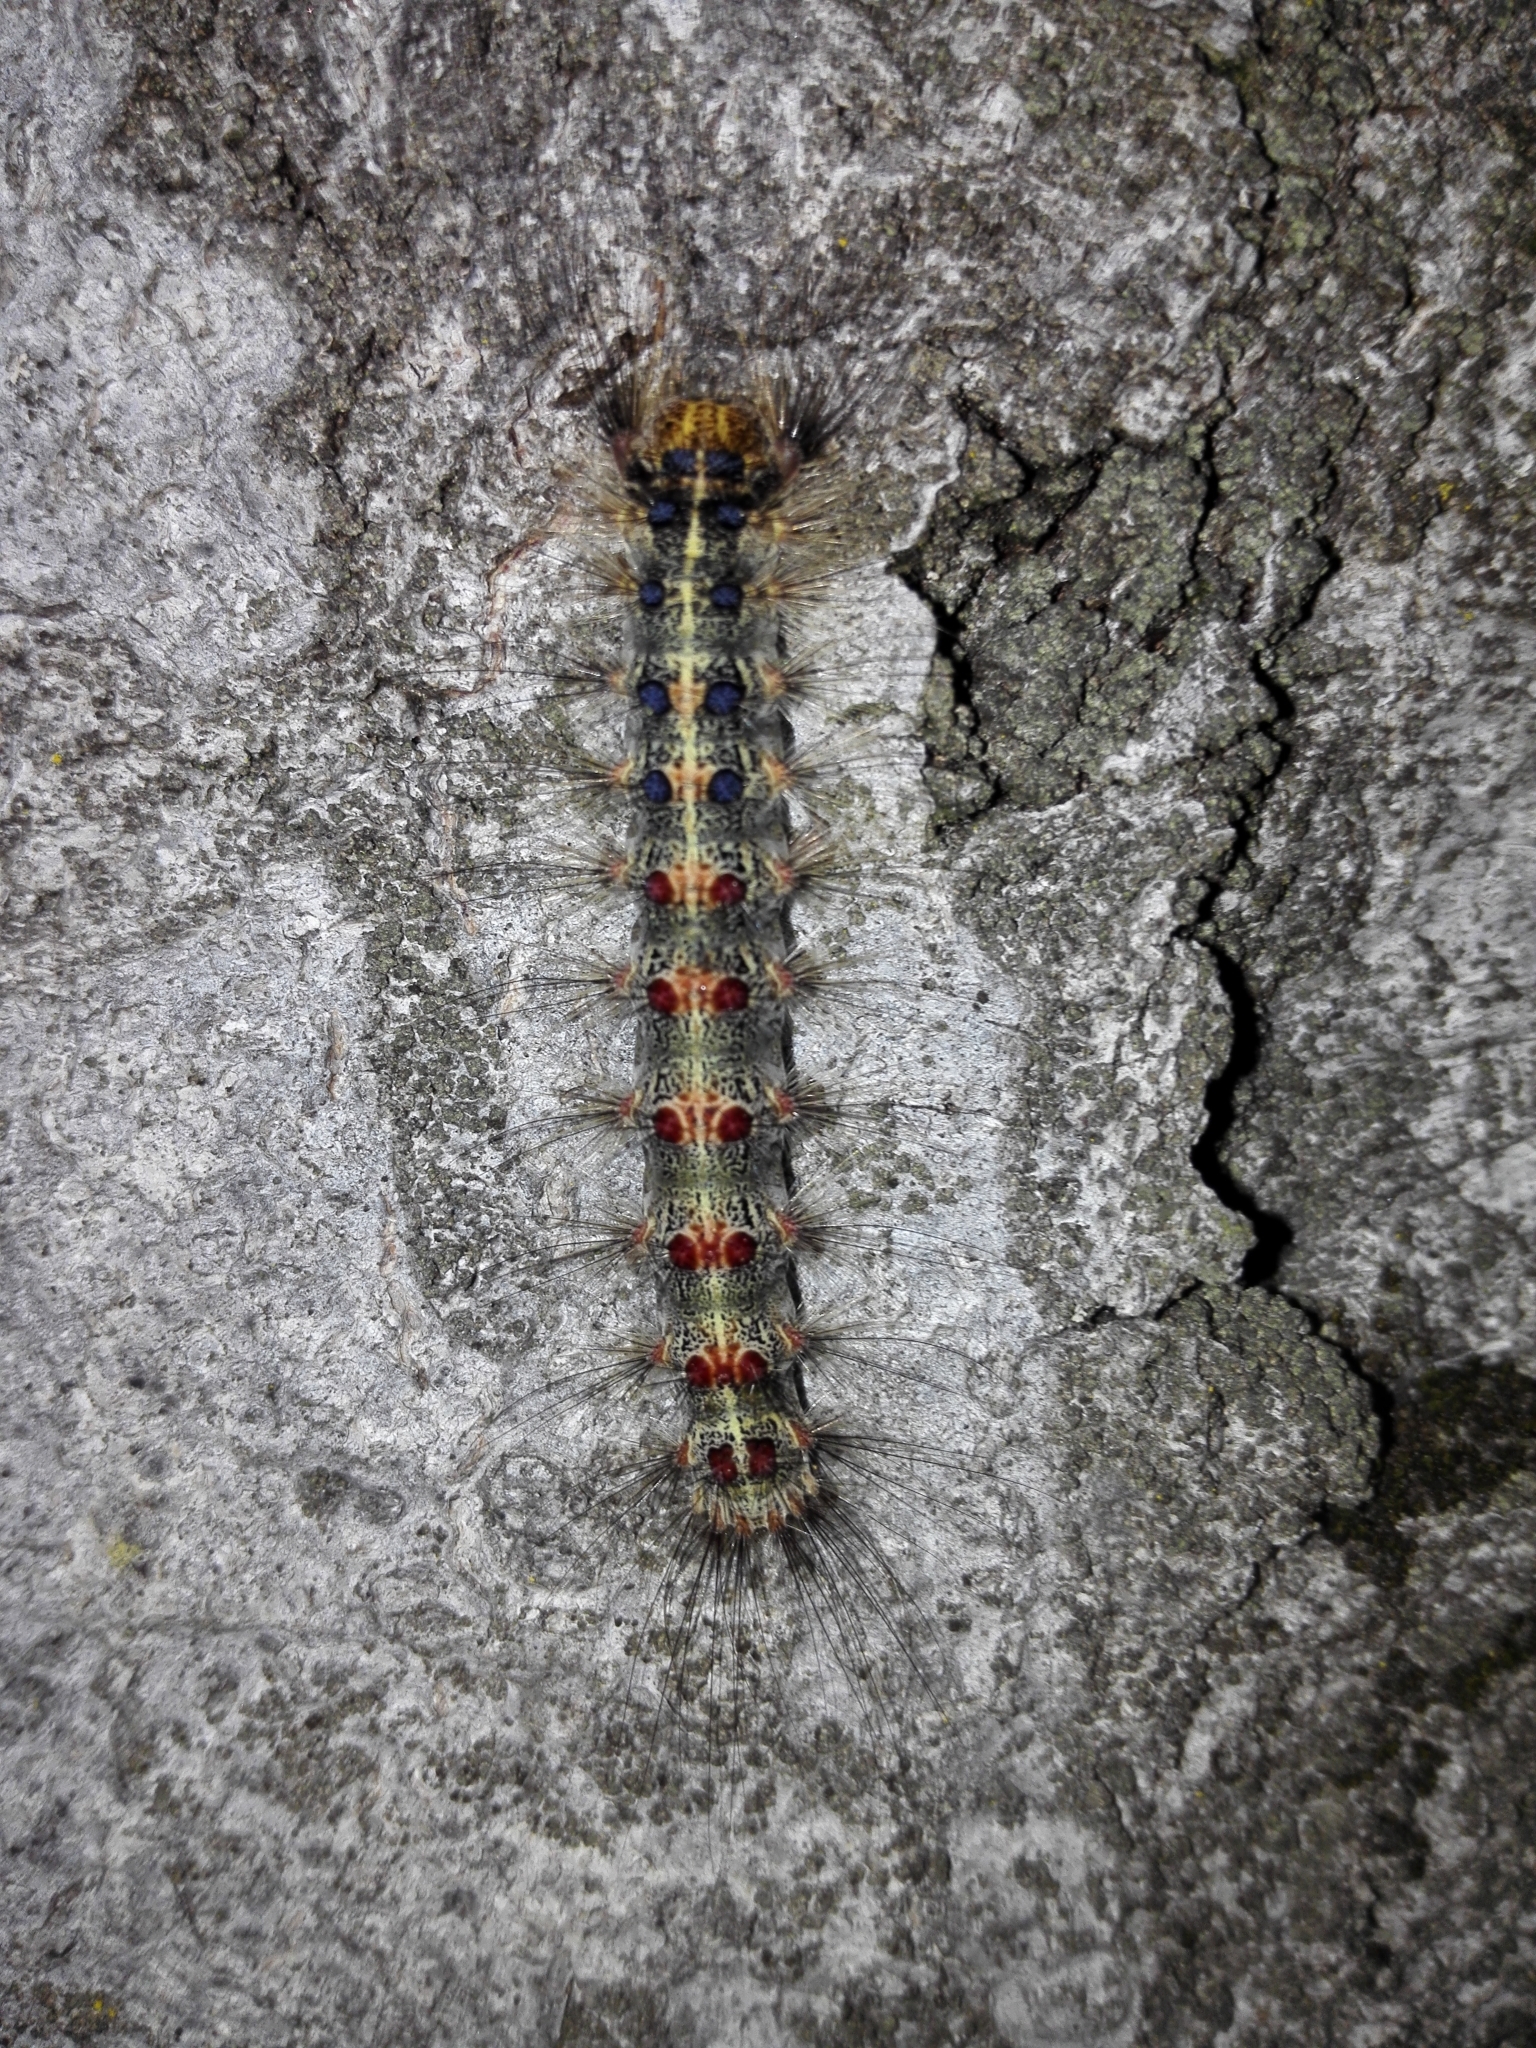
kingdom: Animalia
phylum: Arthropoda
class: Insecta
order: Lepidoptera
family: Erebidae
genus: Lymantria
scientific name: Lymantria dispar
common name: Gypsy moth
